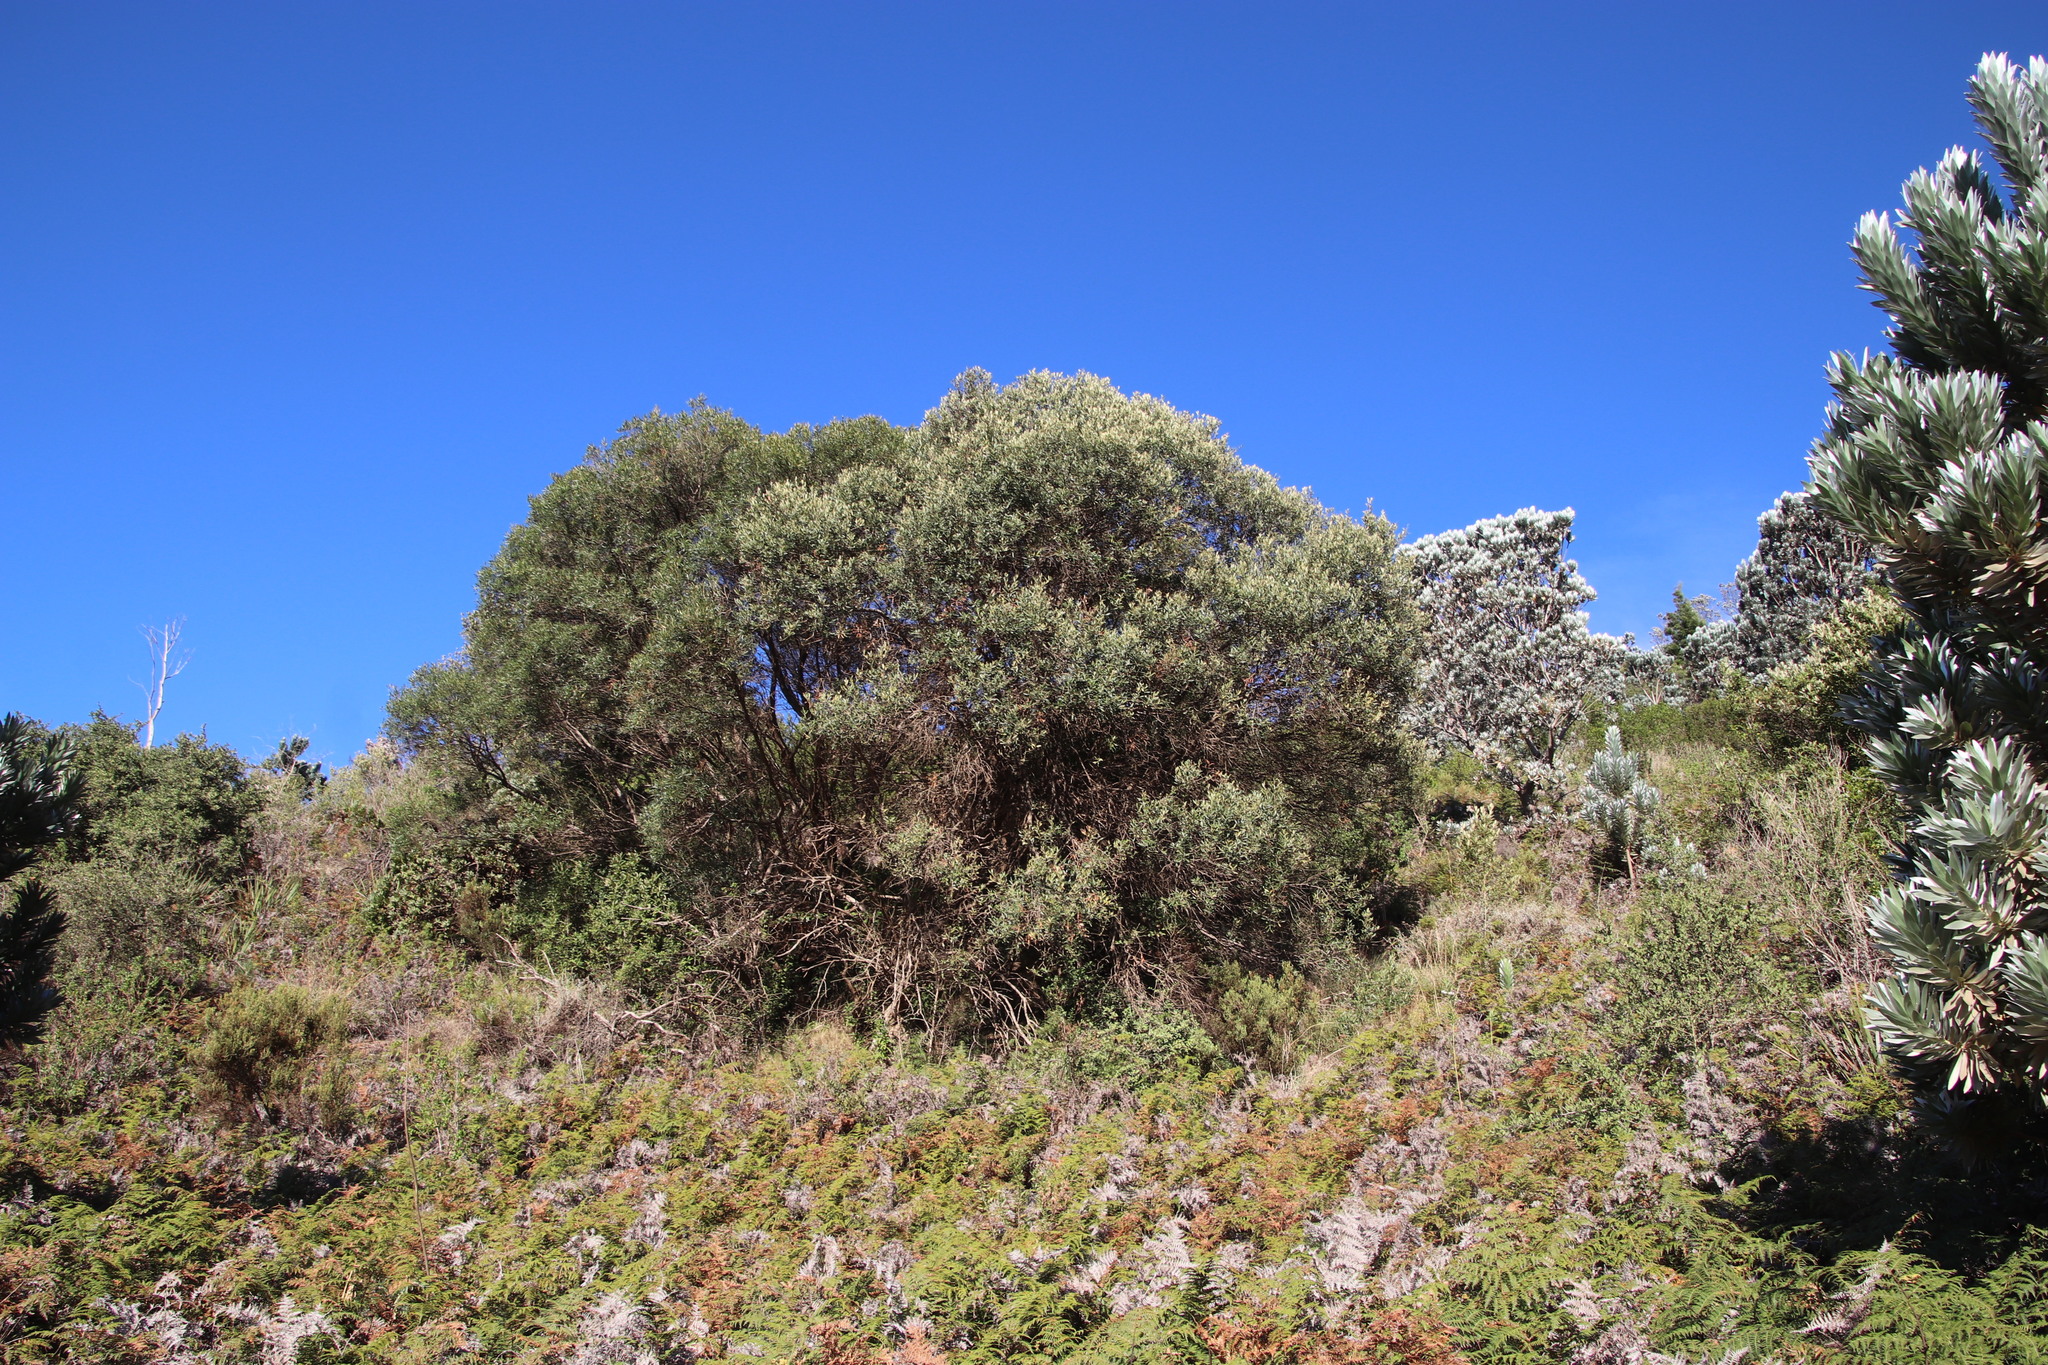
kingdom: Plantae
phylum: Tracheophyta
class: Magnoliopsida
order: Lamiales
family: Oleaceae
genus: Olea
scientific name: Olea europaea
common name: Olive
